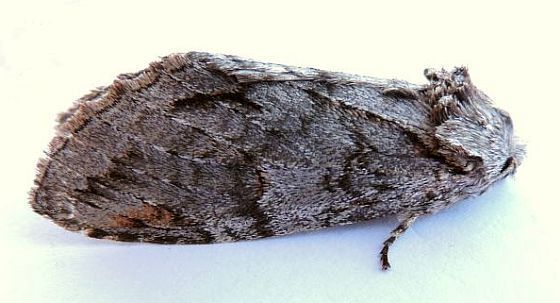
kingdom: Animalia
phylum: Arthropoda
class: Insecta
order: Lepidoptera
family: Notodontidae
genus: Macrurocampa
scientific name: Macrurocampa
